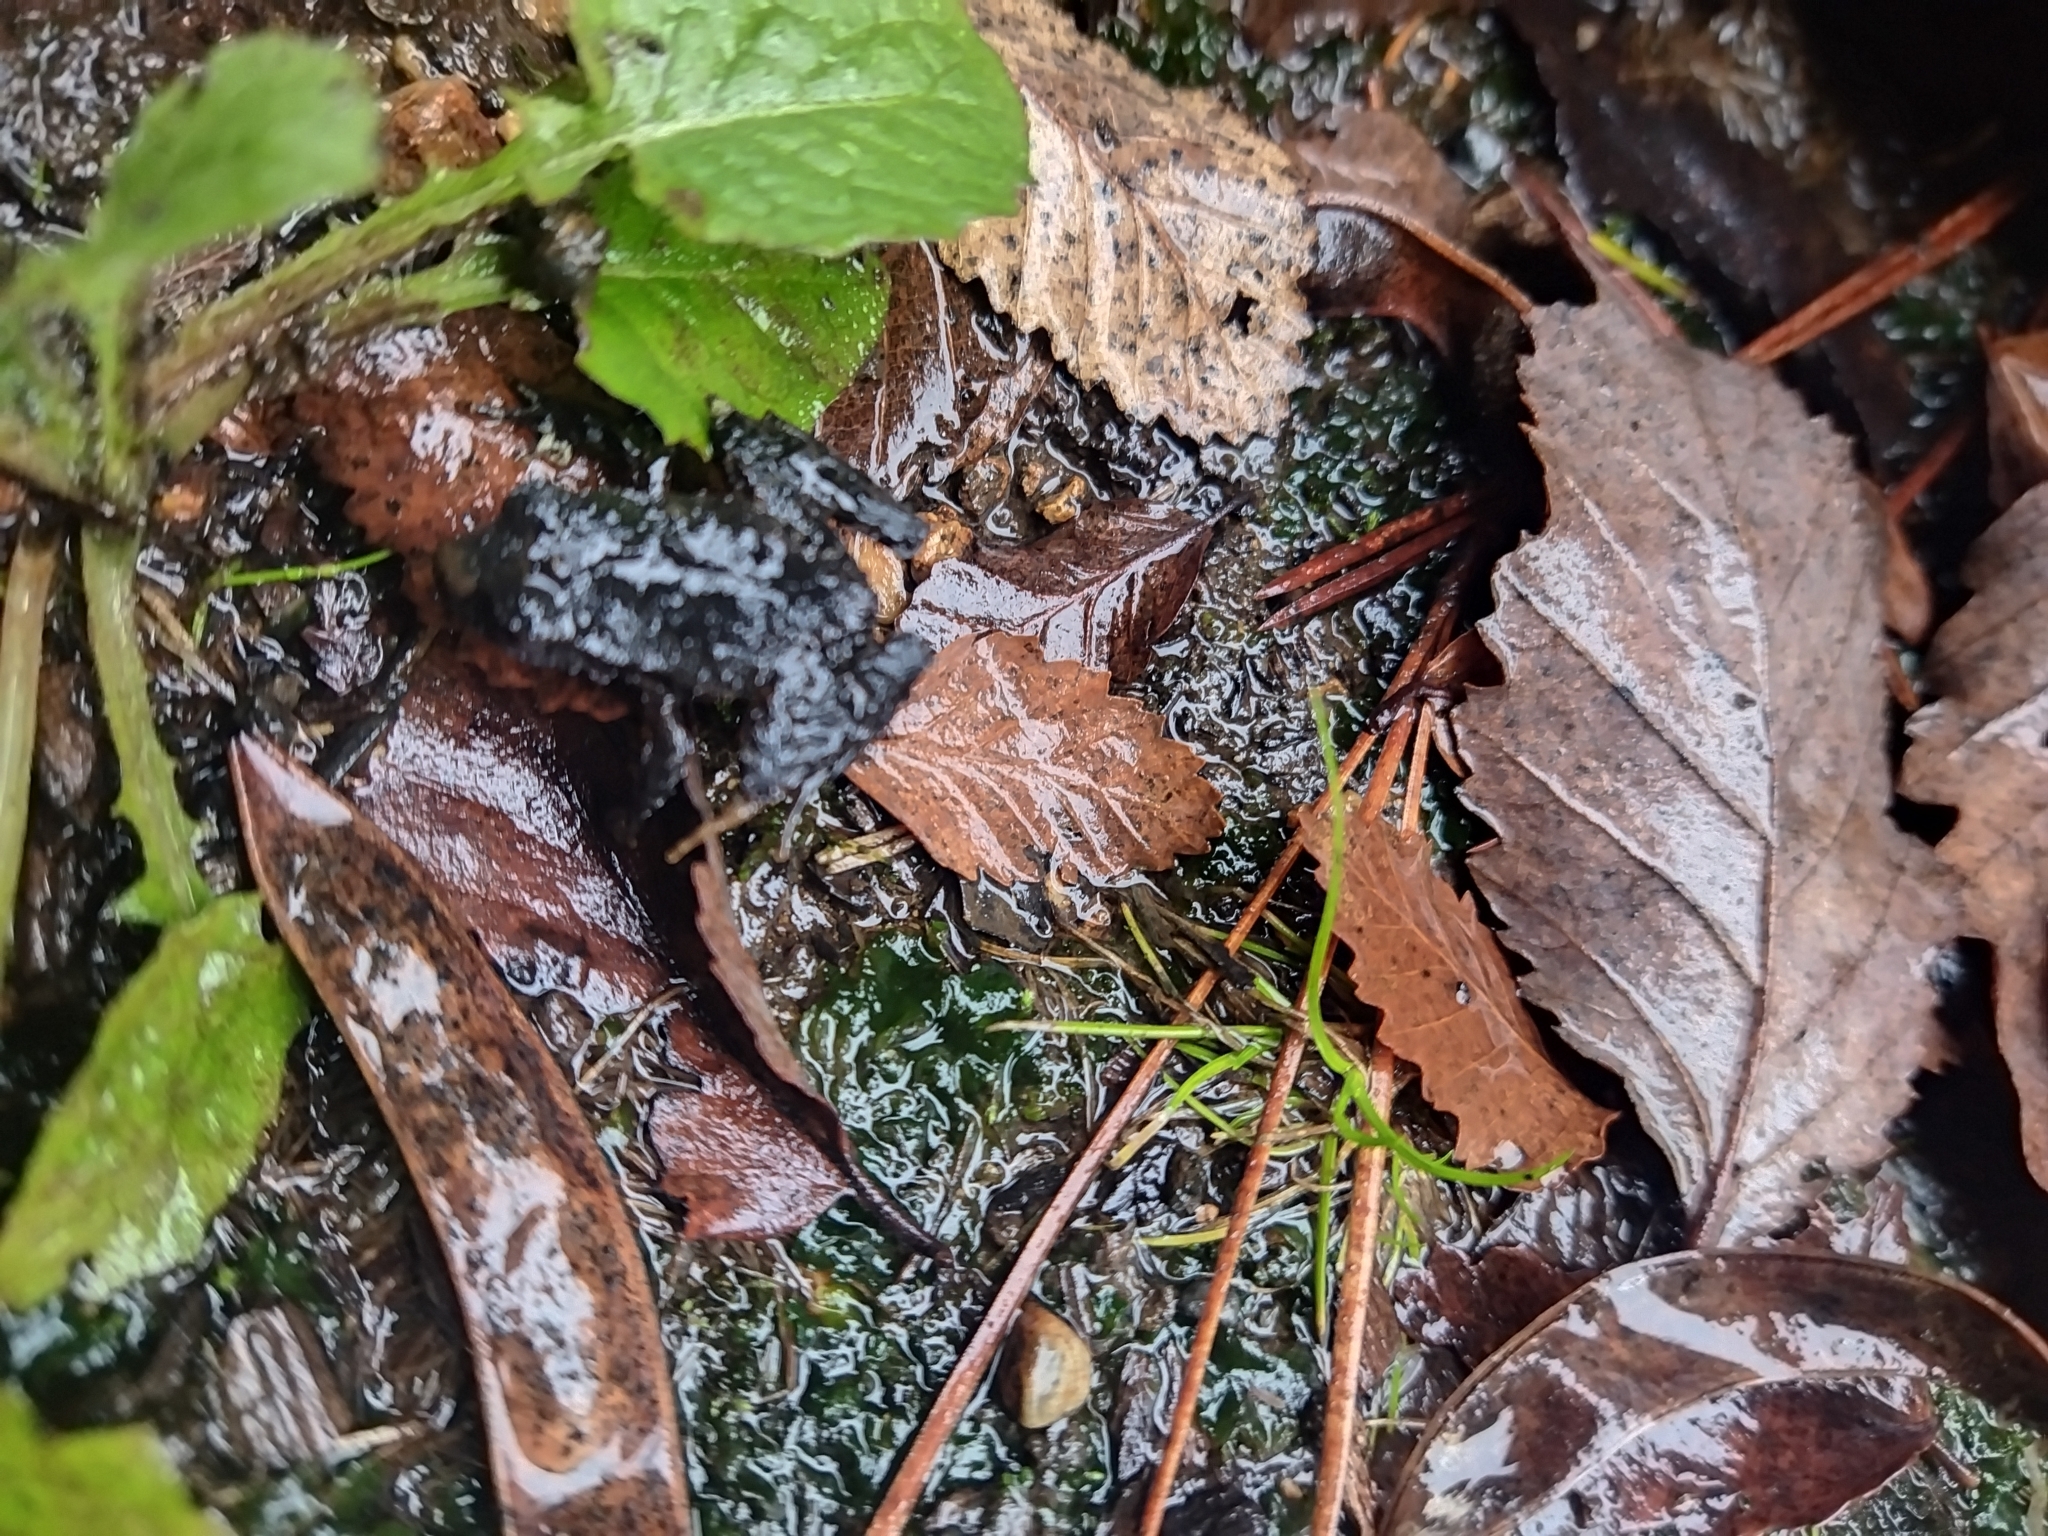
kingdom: Animalia
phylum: Chordata
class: Amphibia
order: Anura
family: Alsodidae
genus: Eupsophus
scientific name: Eupsophus roseus
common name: Rosy ground frog
